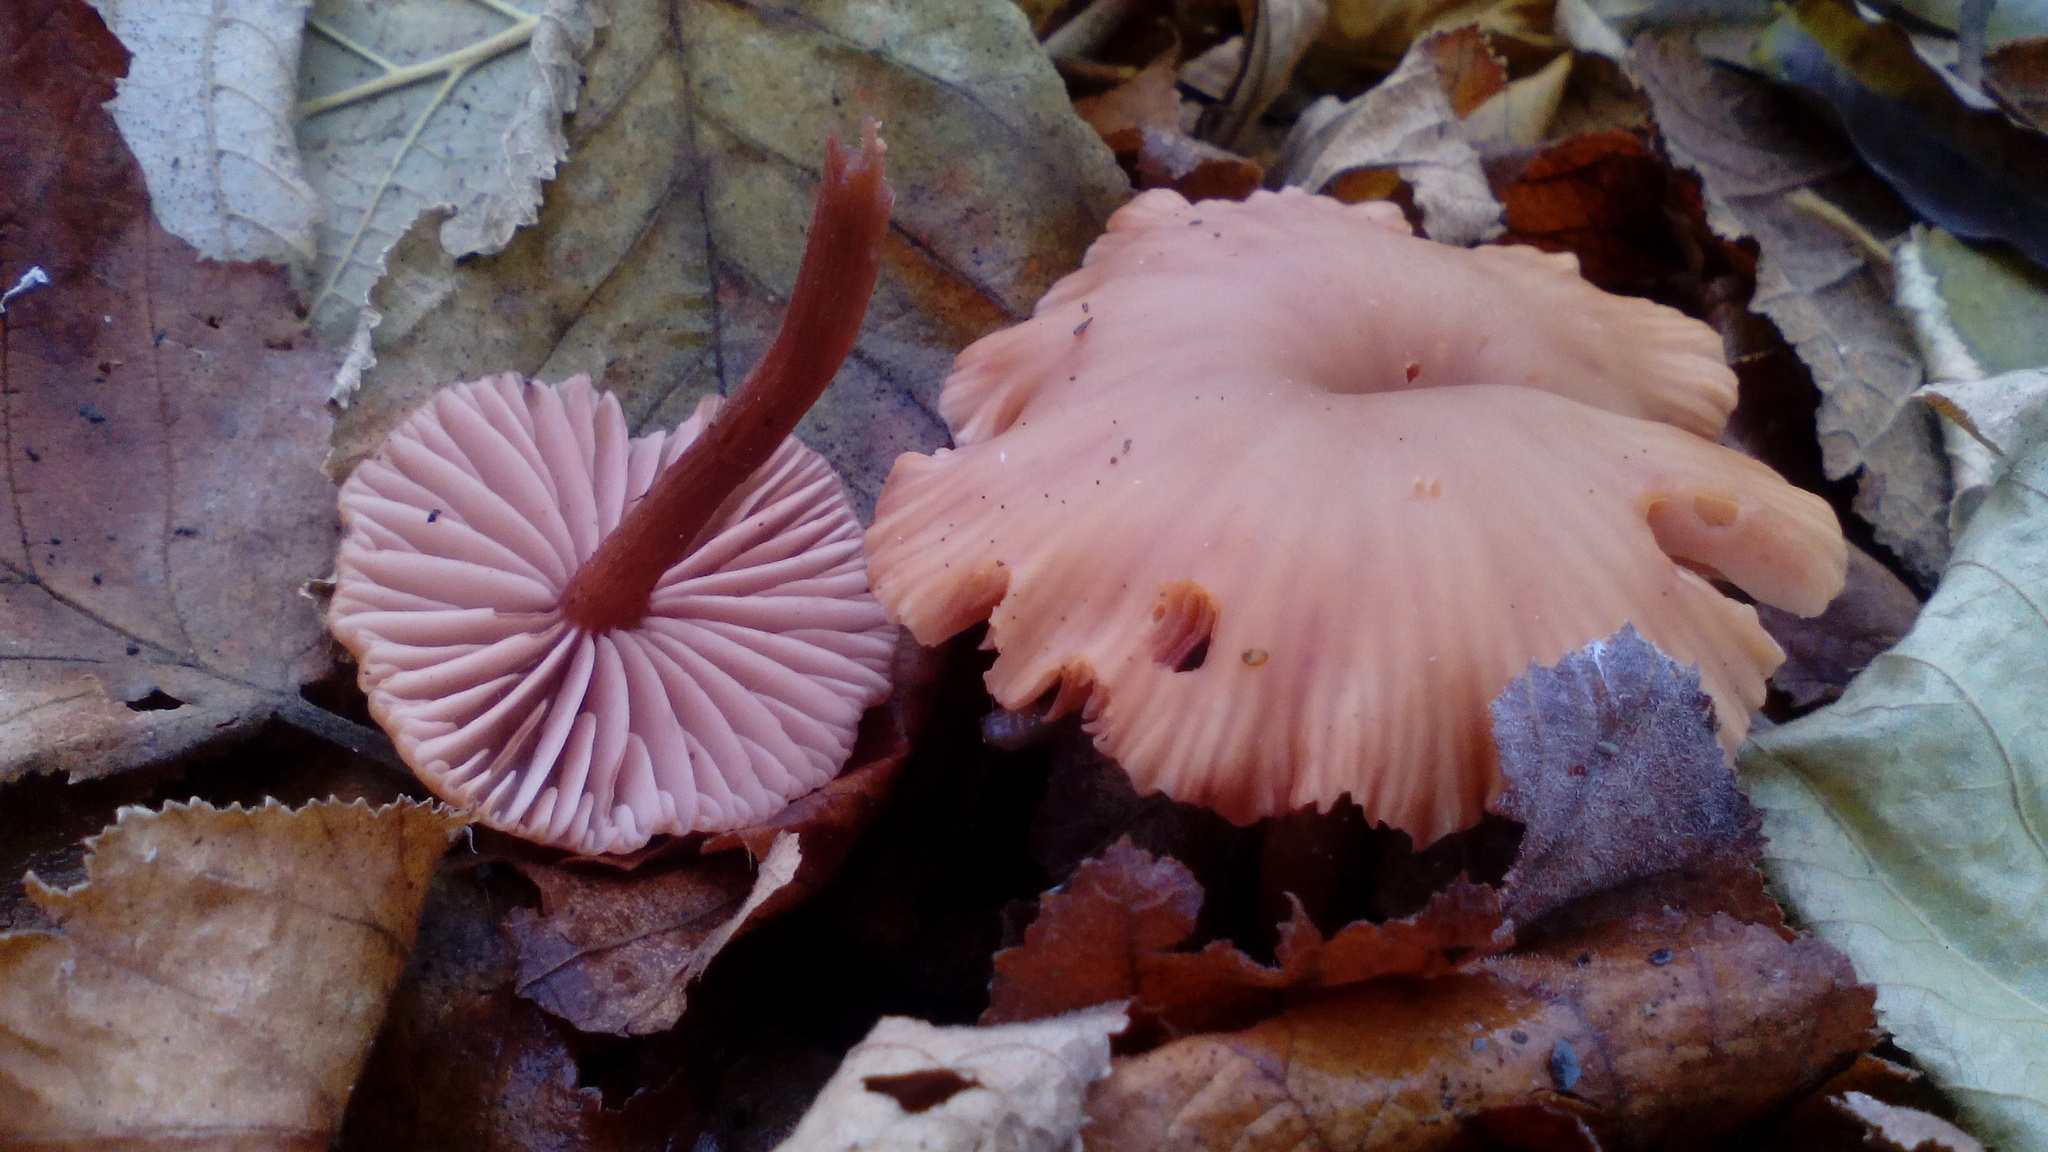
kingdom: Fungi
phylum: Basidiomycota
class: Agaricomycetes
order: Agaricales
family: Hydnangiaceae
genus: Laccaria
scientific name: Laccaria laccata
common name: Deceiver
